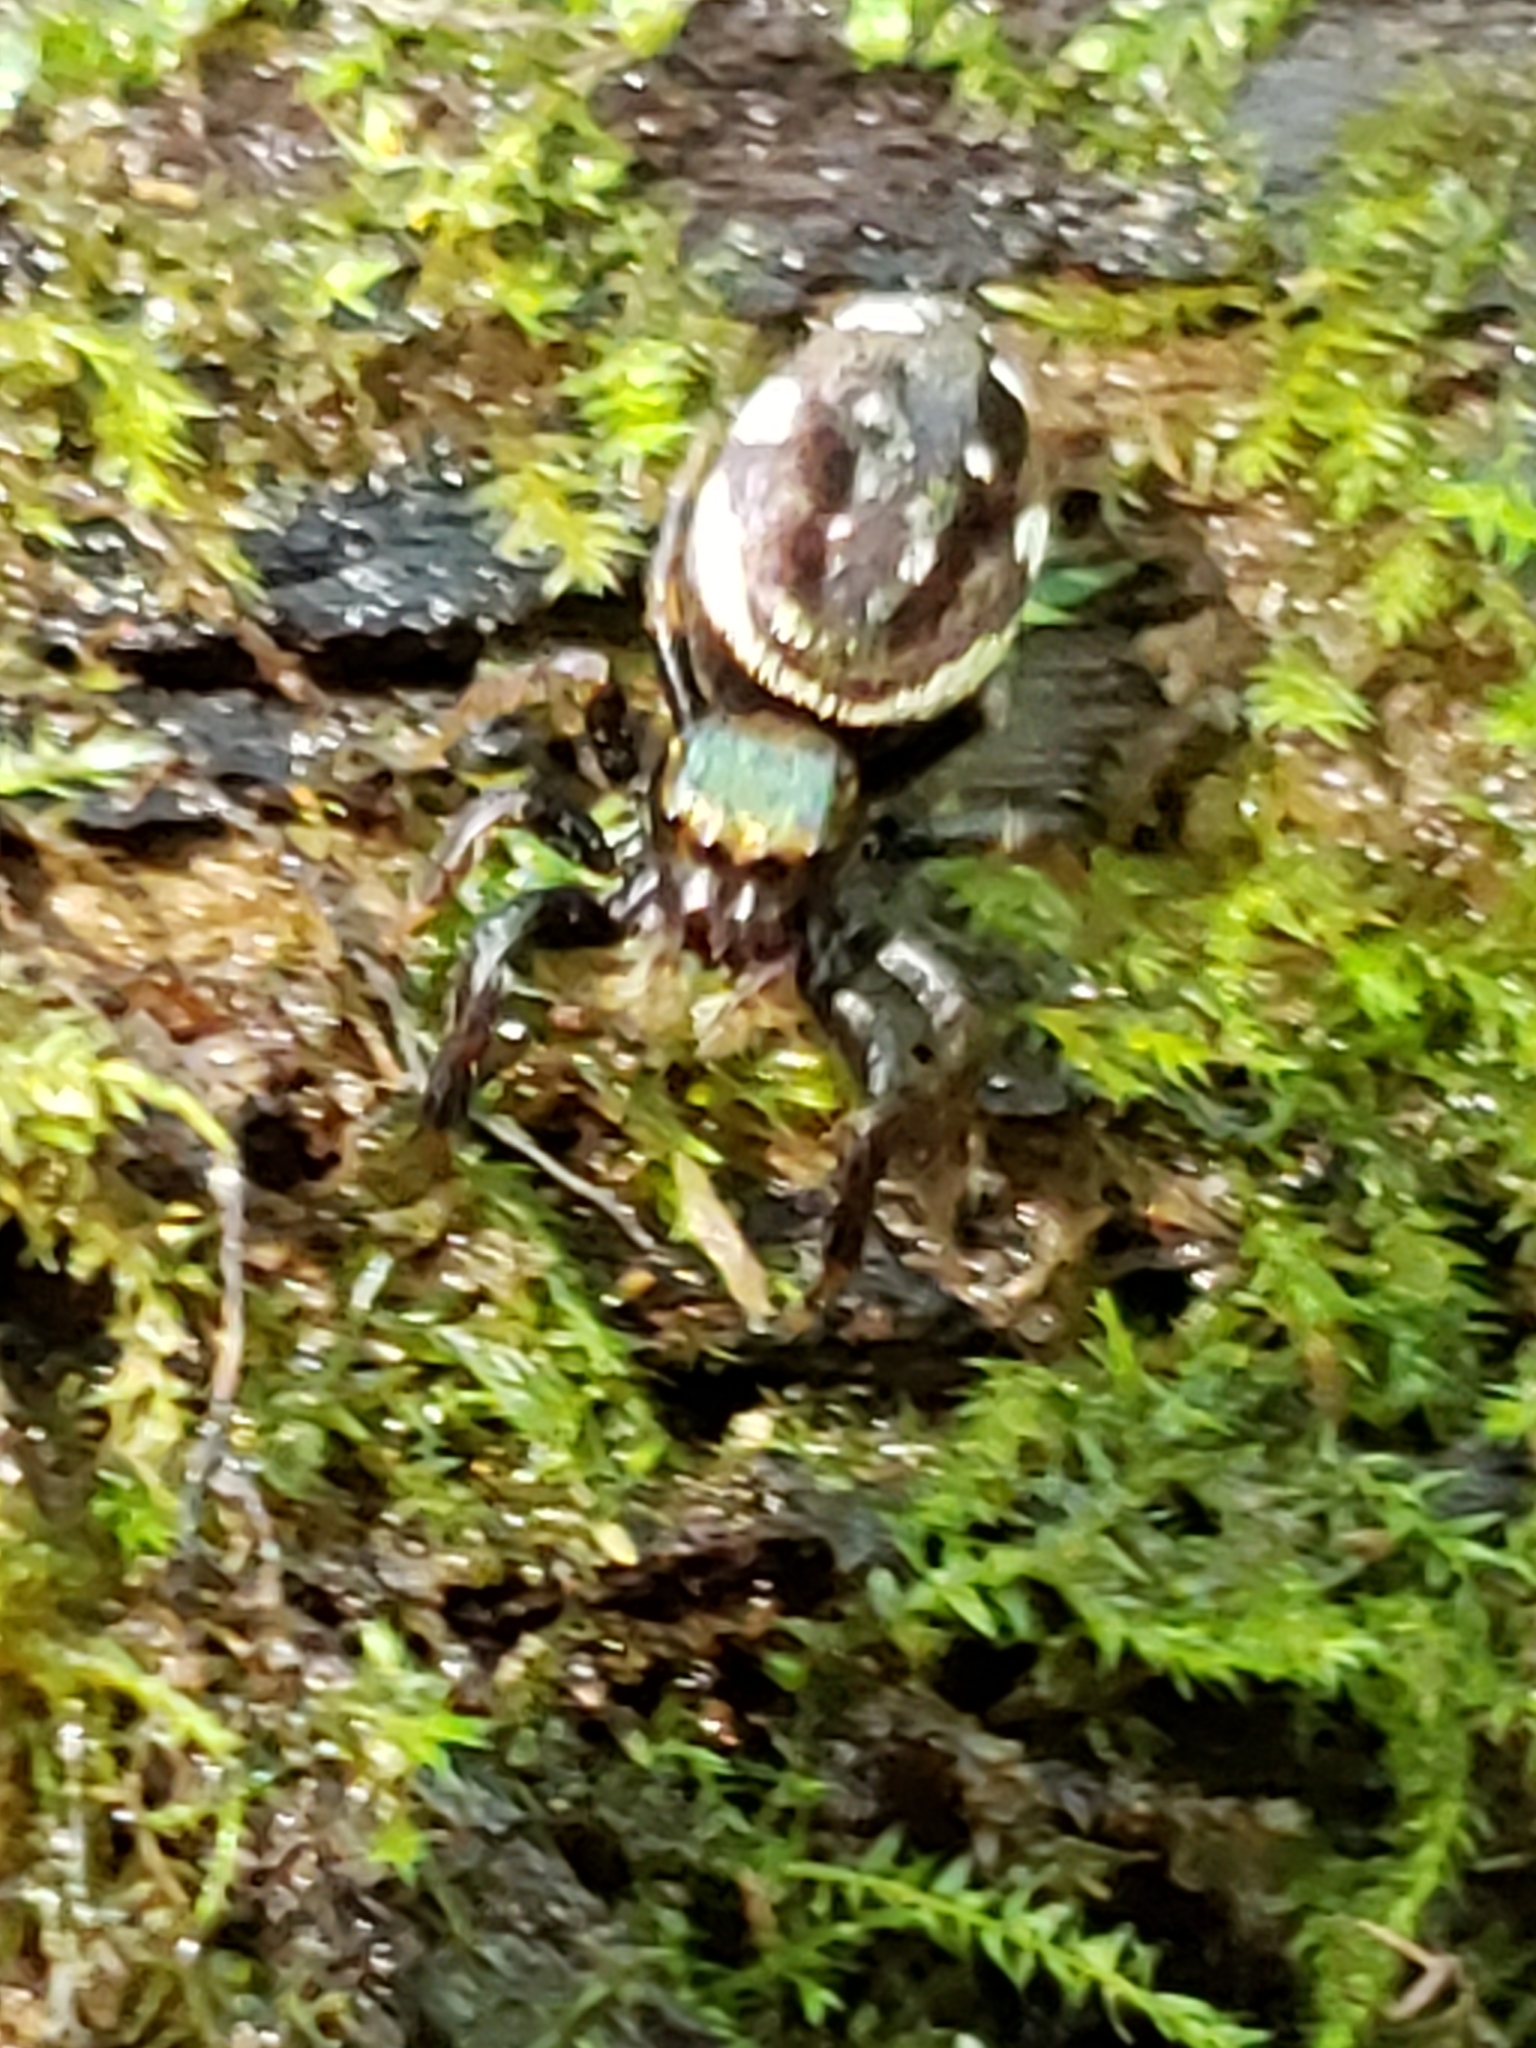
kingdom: Animalia
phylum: Arthropoda
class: Arachnida
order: Araneae
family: Salticidae
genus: Paraphidippus
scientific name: Paraphidippus aurantius
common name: Jumping spiders
